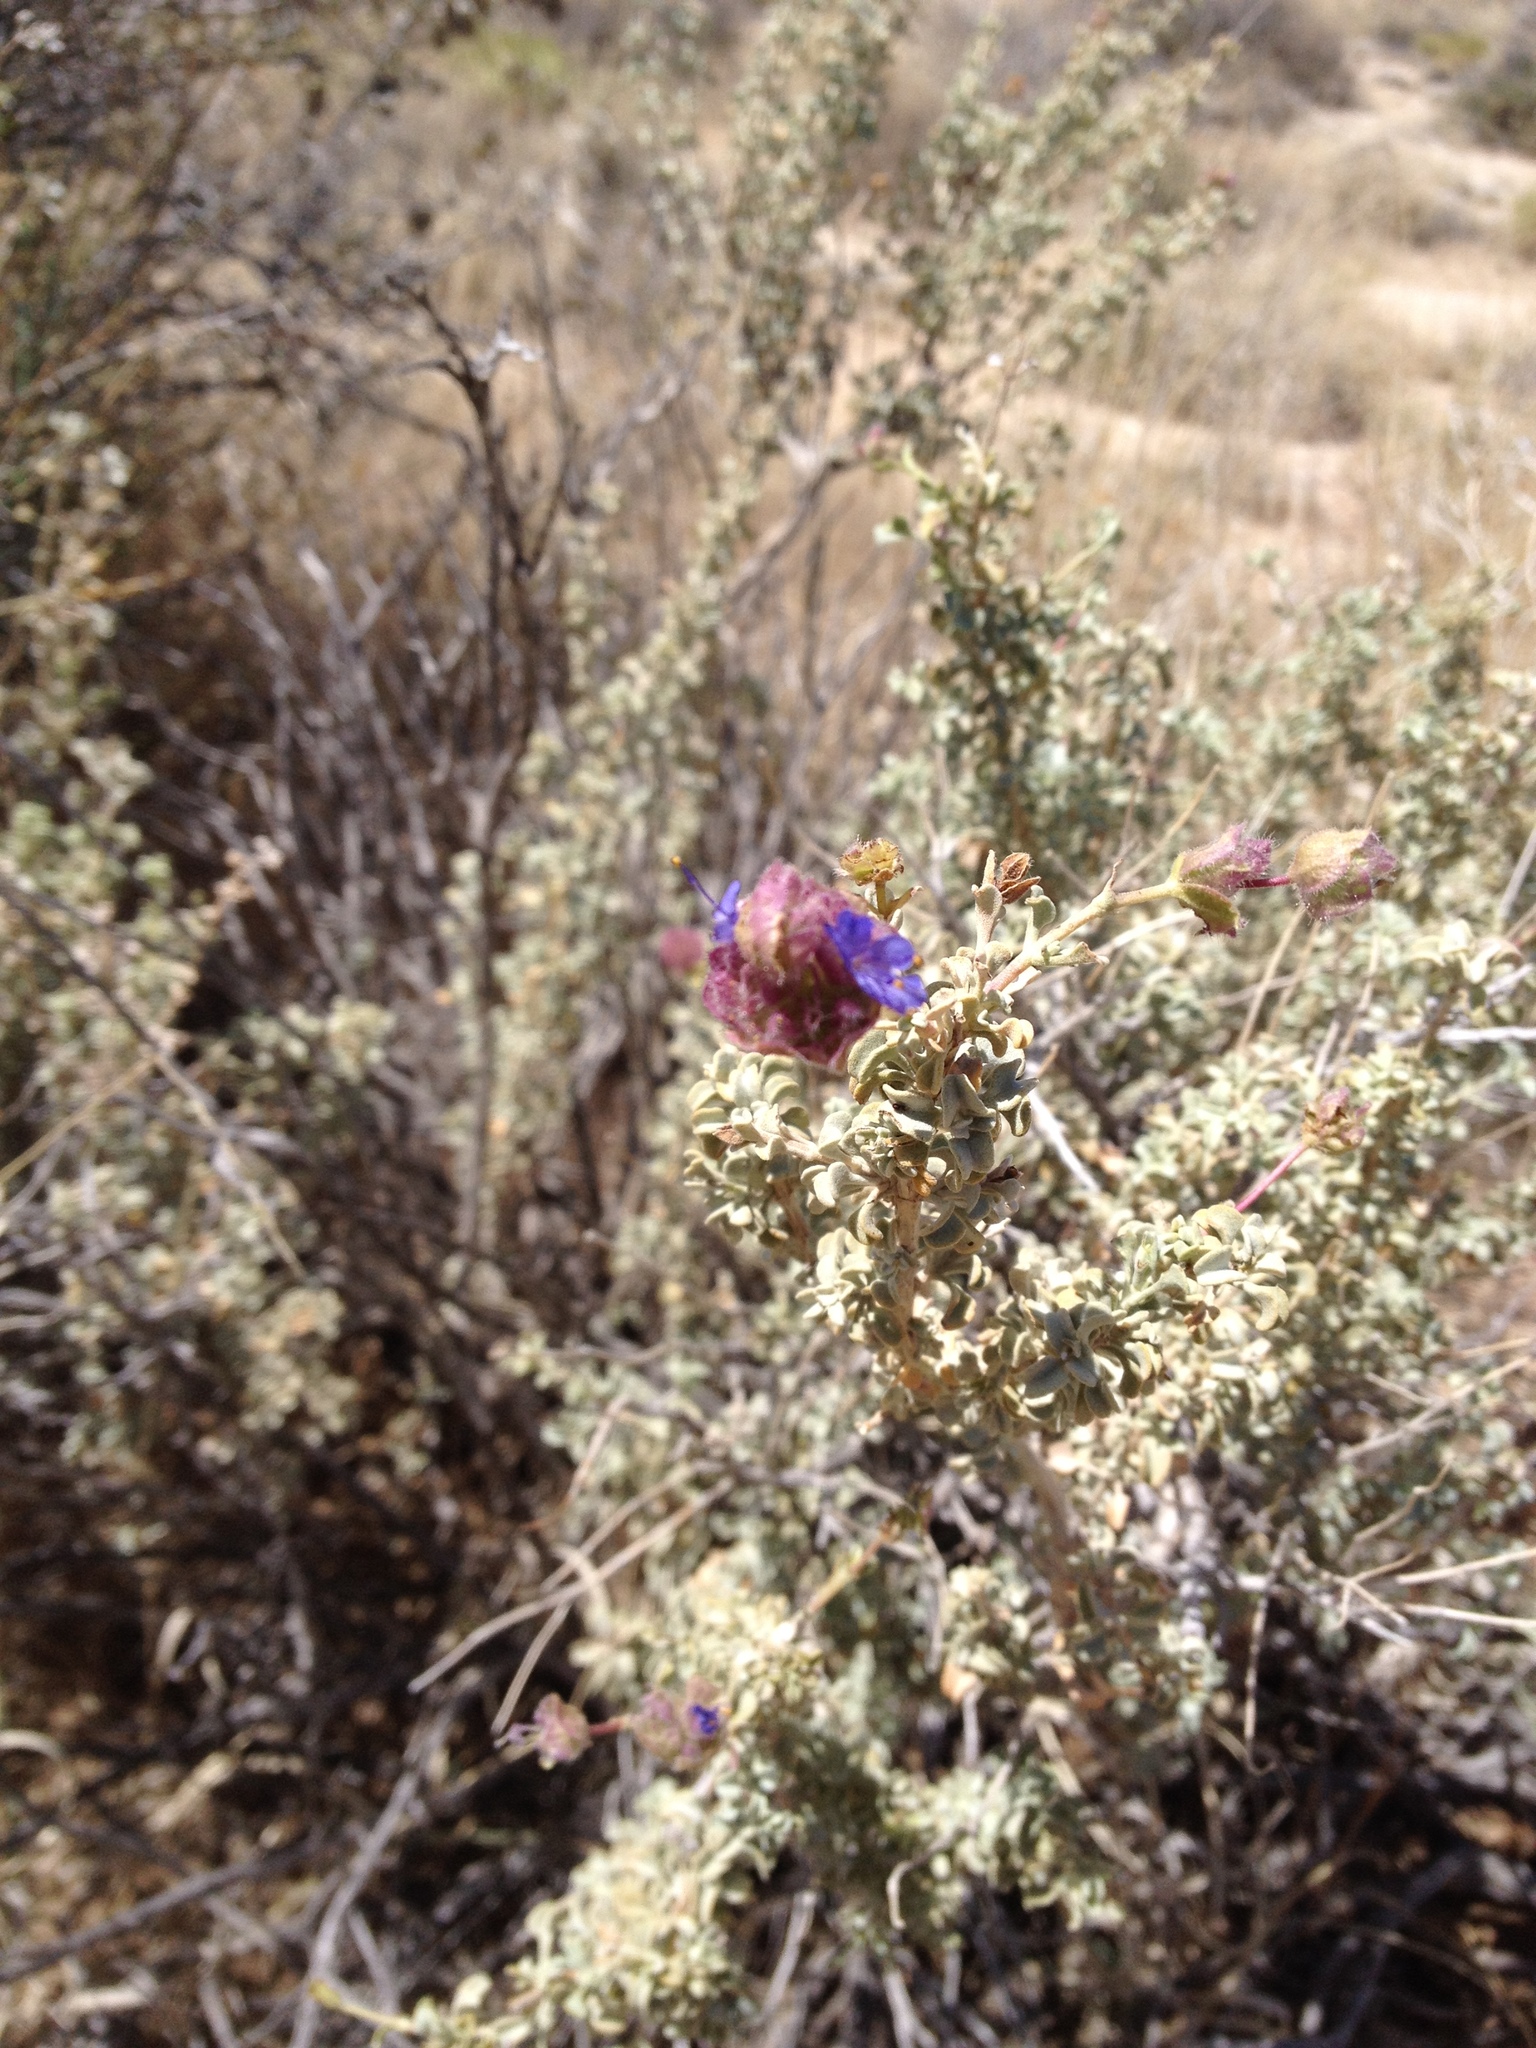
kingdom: Plantae
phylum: Tracheophyta
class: Magnoliopsida
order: Lamiales
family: Lamiaceae
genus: Salvia
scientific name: Salvia dorrii
